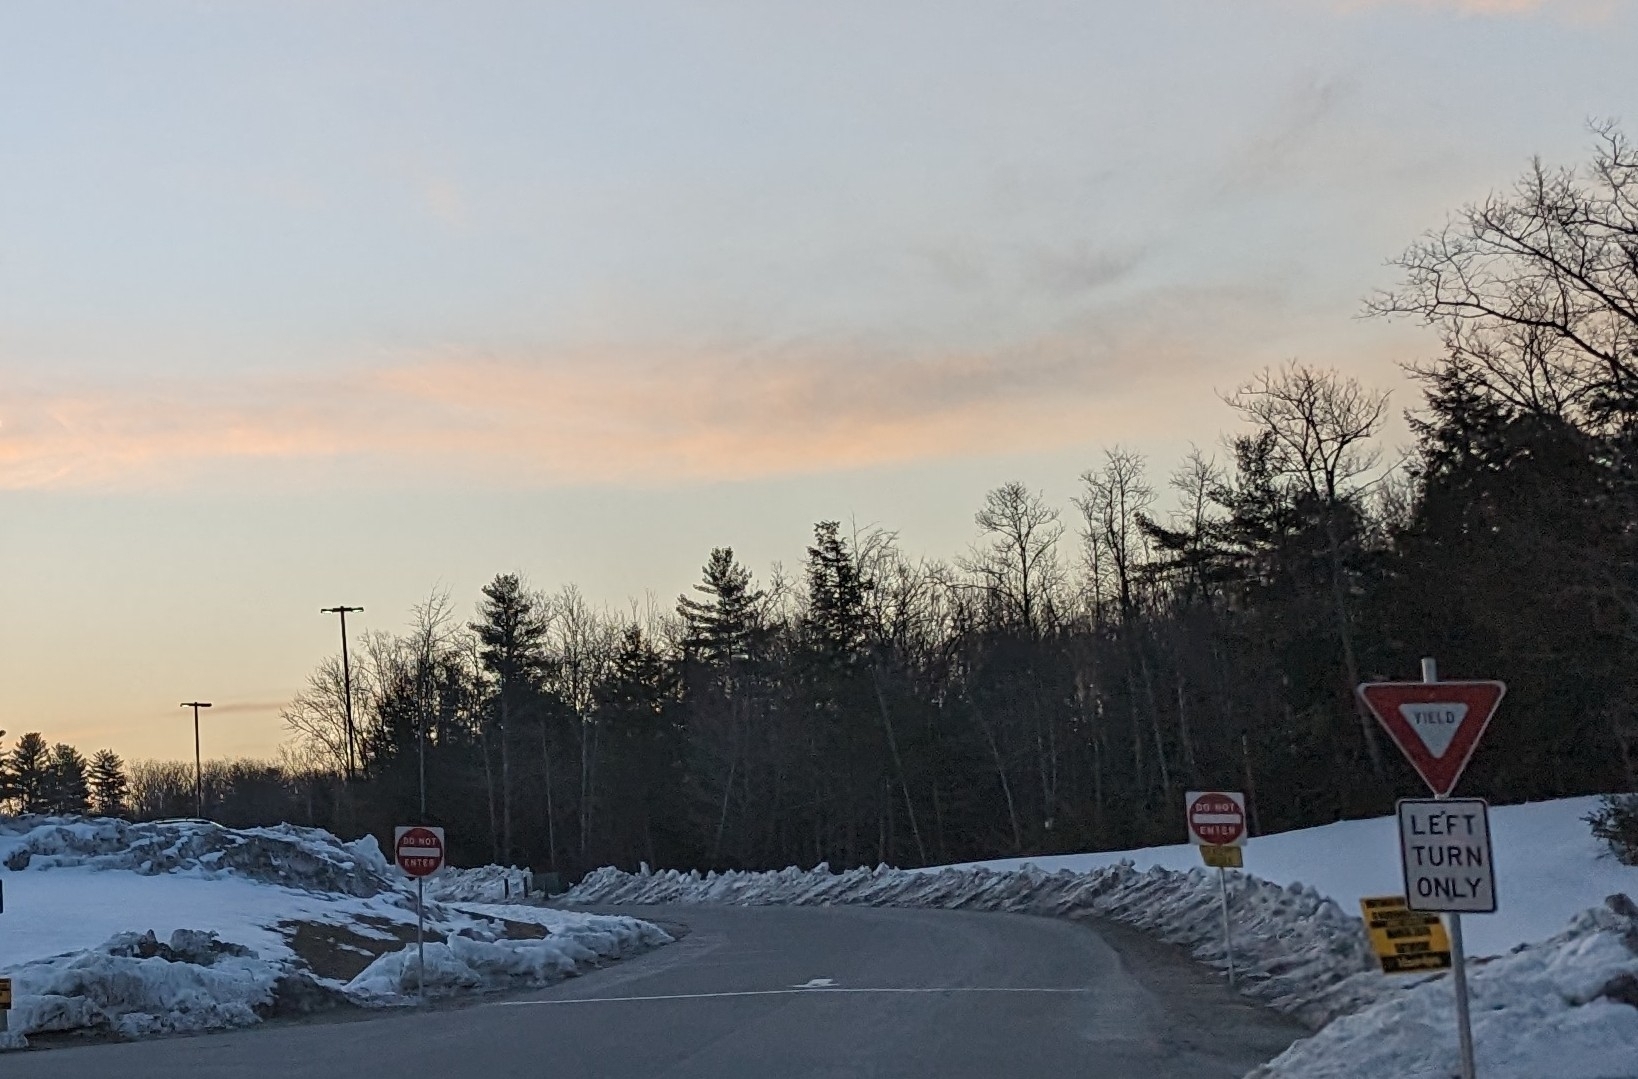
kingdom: Plantae
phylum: Tracheophyta
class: Pinopsida
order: Pinales
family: Pinaceae
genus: Pinus
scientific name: Pinus strobus
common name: Weymouth pine
